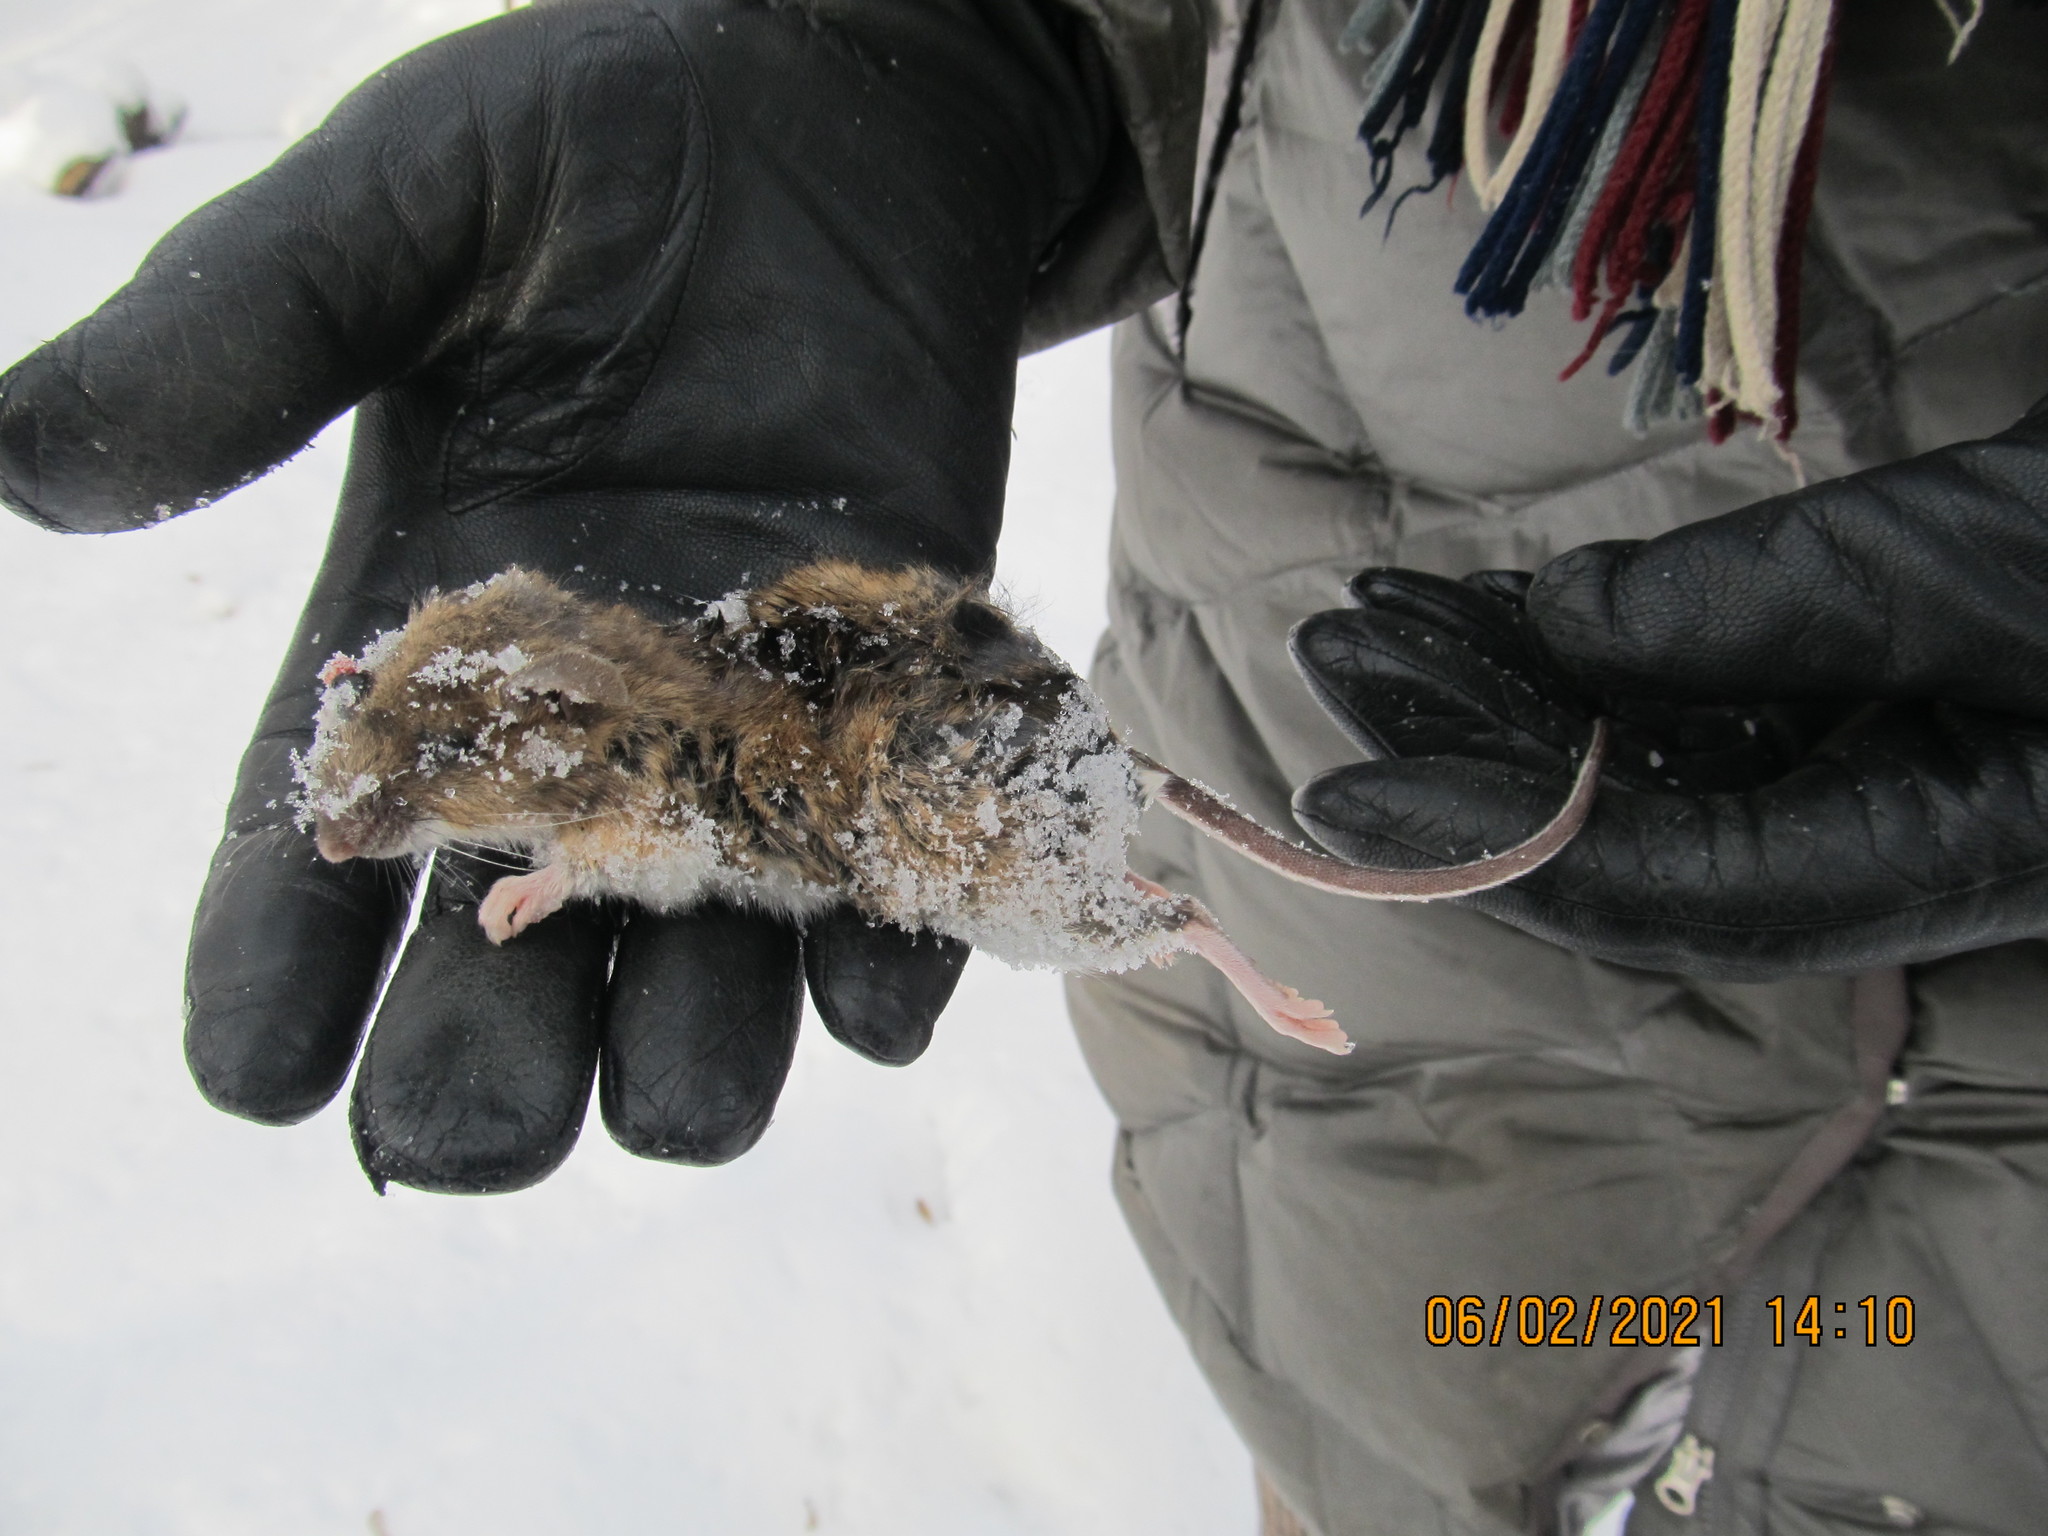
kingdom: Animalia
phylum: Chordata
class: Mammalia
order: Rodentia
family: Muridae
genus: Apodemus
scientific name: Apodemus flavicollis
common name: Yellow-necked field mouse
